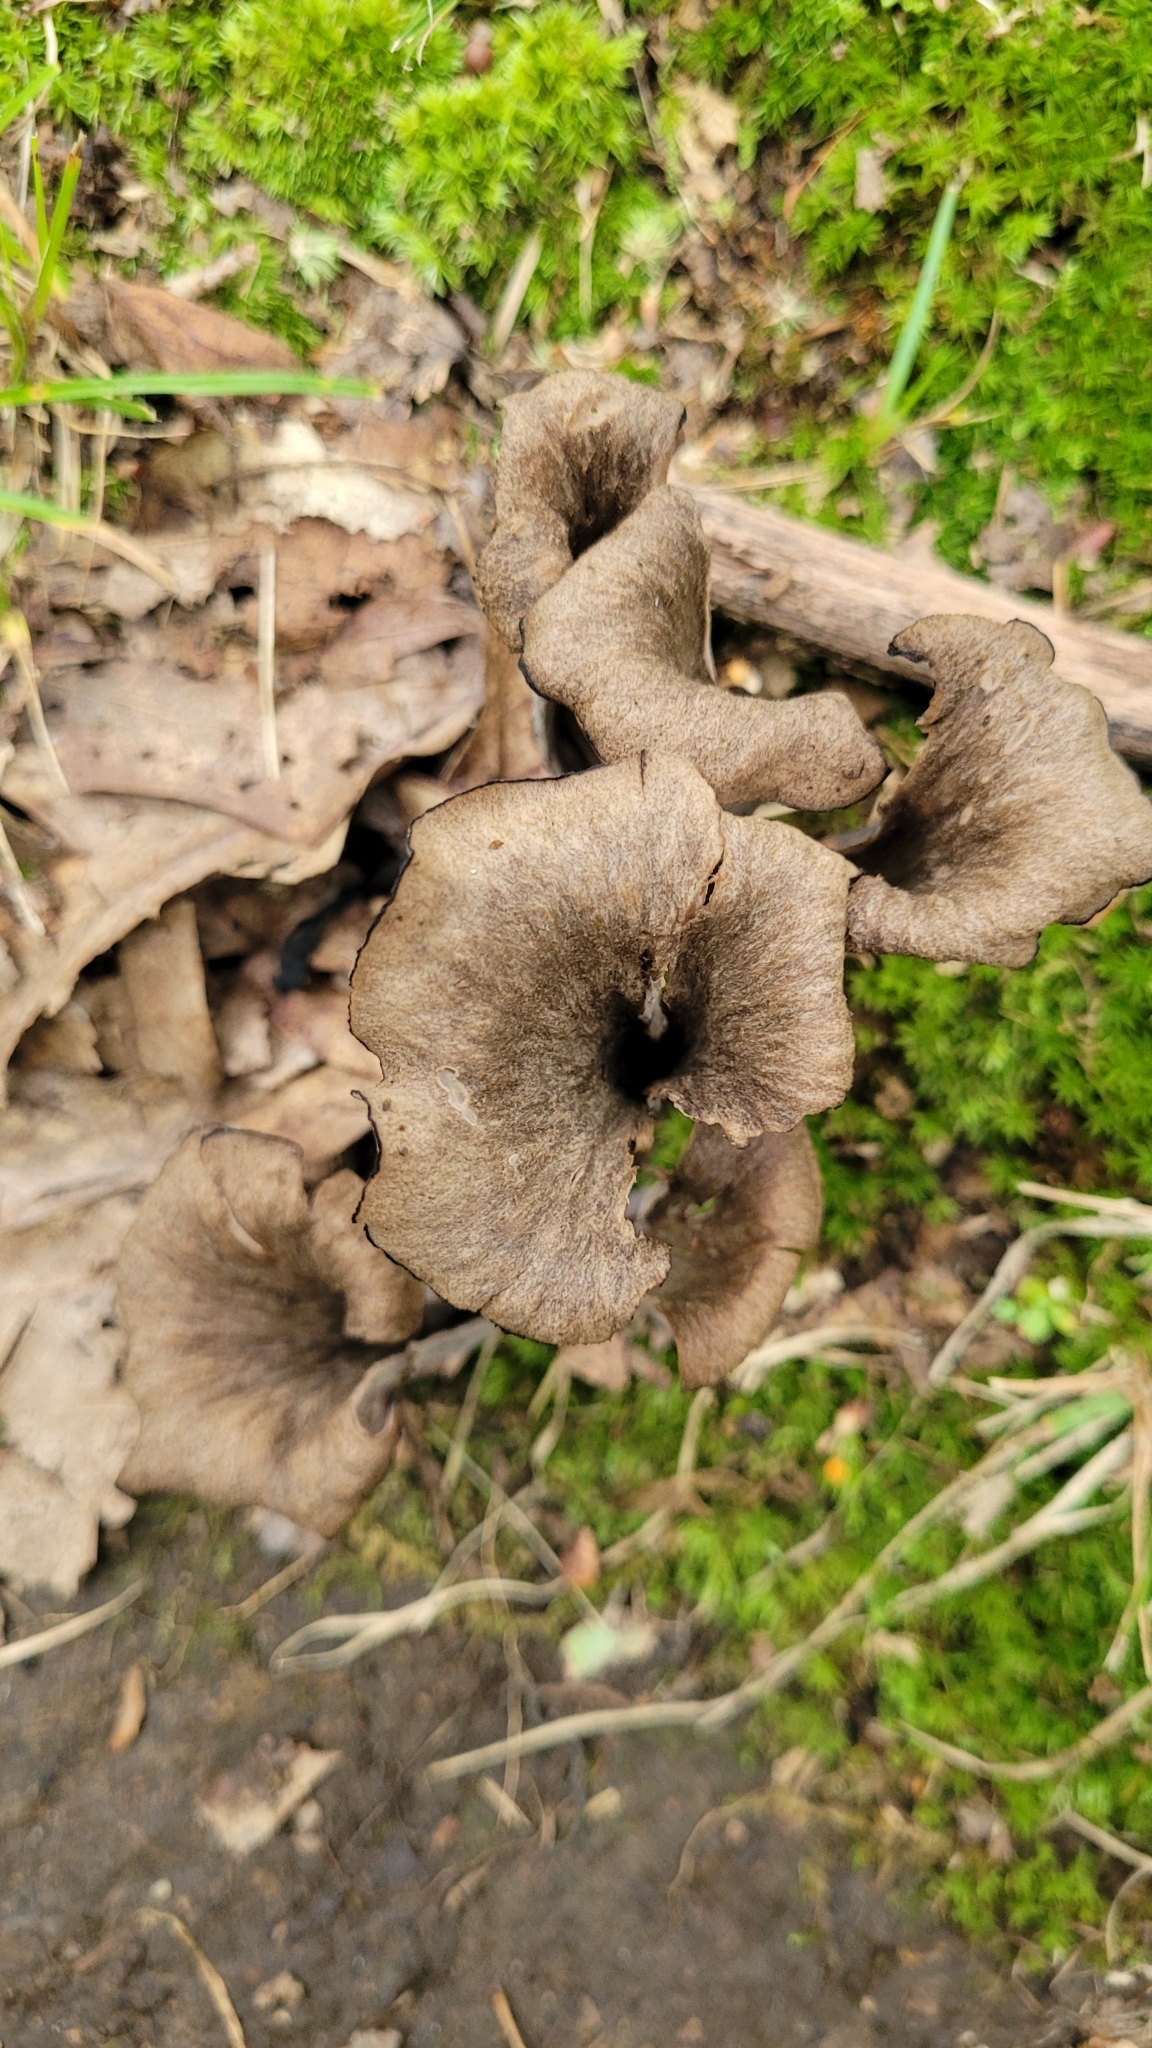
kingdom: Fungi
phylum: Basidiomycota
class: Agaricomycetes
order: Cantharellales
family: Hydnaceae
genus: Craterellus
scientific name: Craterellus cornucopioides
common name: Horn of plenty
